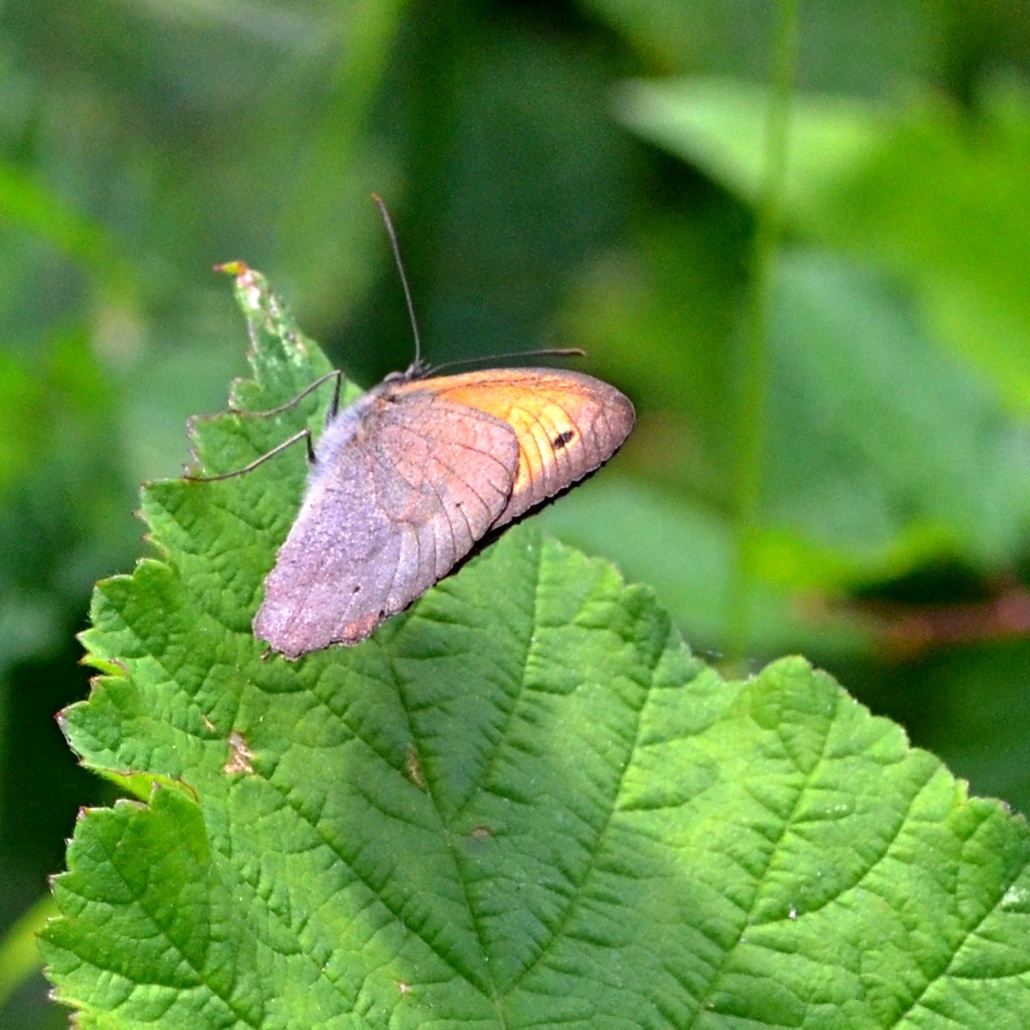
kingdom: Animalia
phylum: Arthropoda
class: Insecta
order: Lepidoptera
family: Nymphalidae
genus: Maniola
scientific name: Maniola jurtina
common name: Meadow brown
